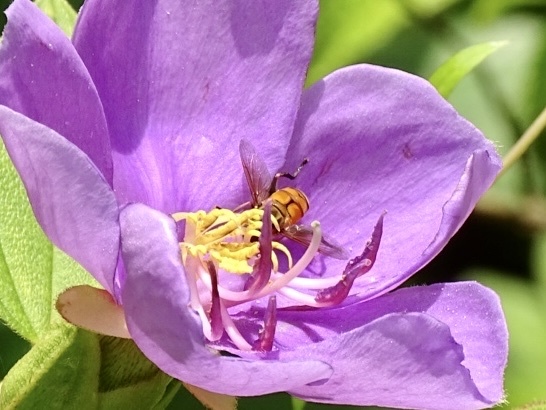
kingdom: Animalia
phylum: Arthropoda
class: Insecta
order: Diptera
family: Syrphidae
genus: Mesembrius
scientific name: Mesembrius bengalensis
